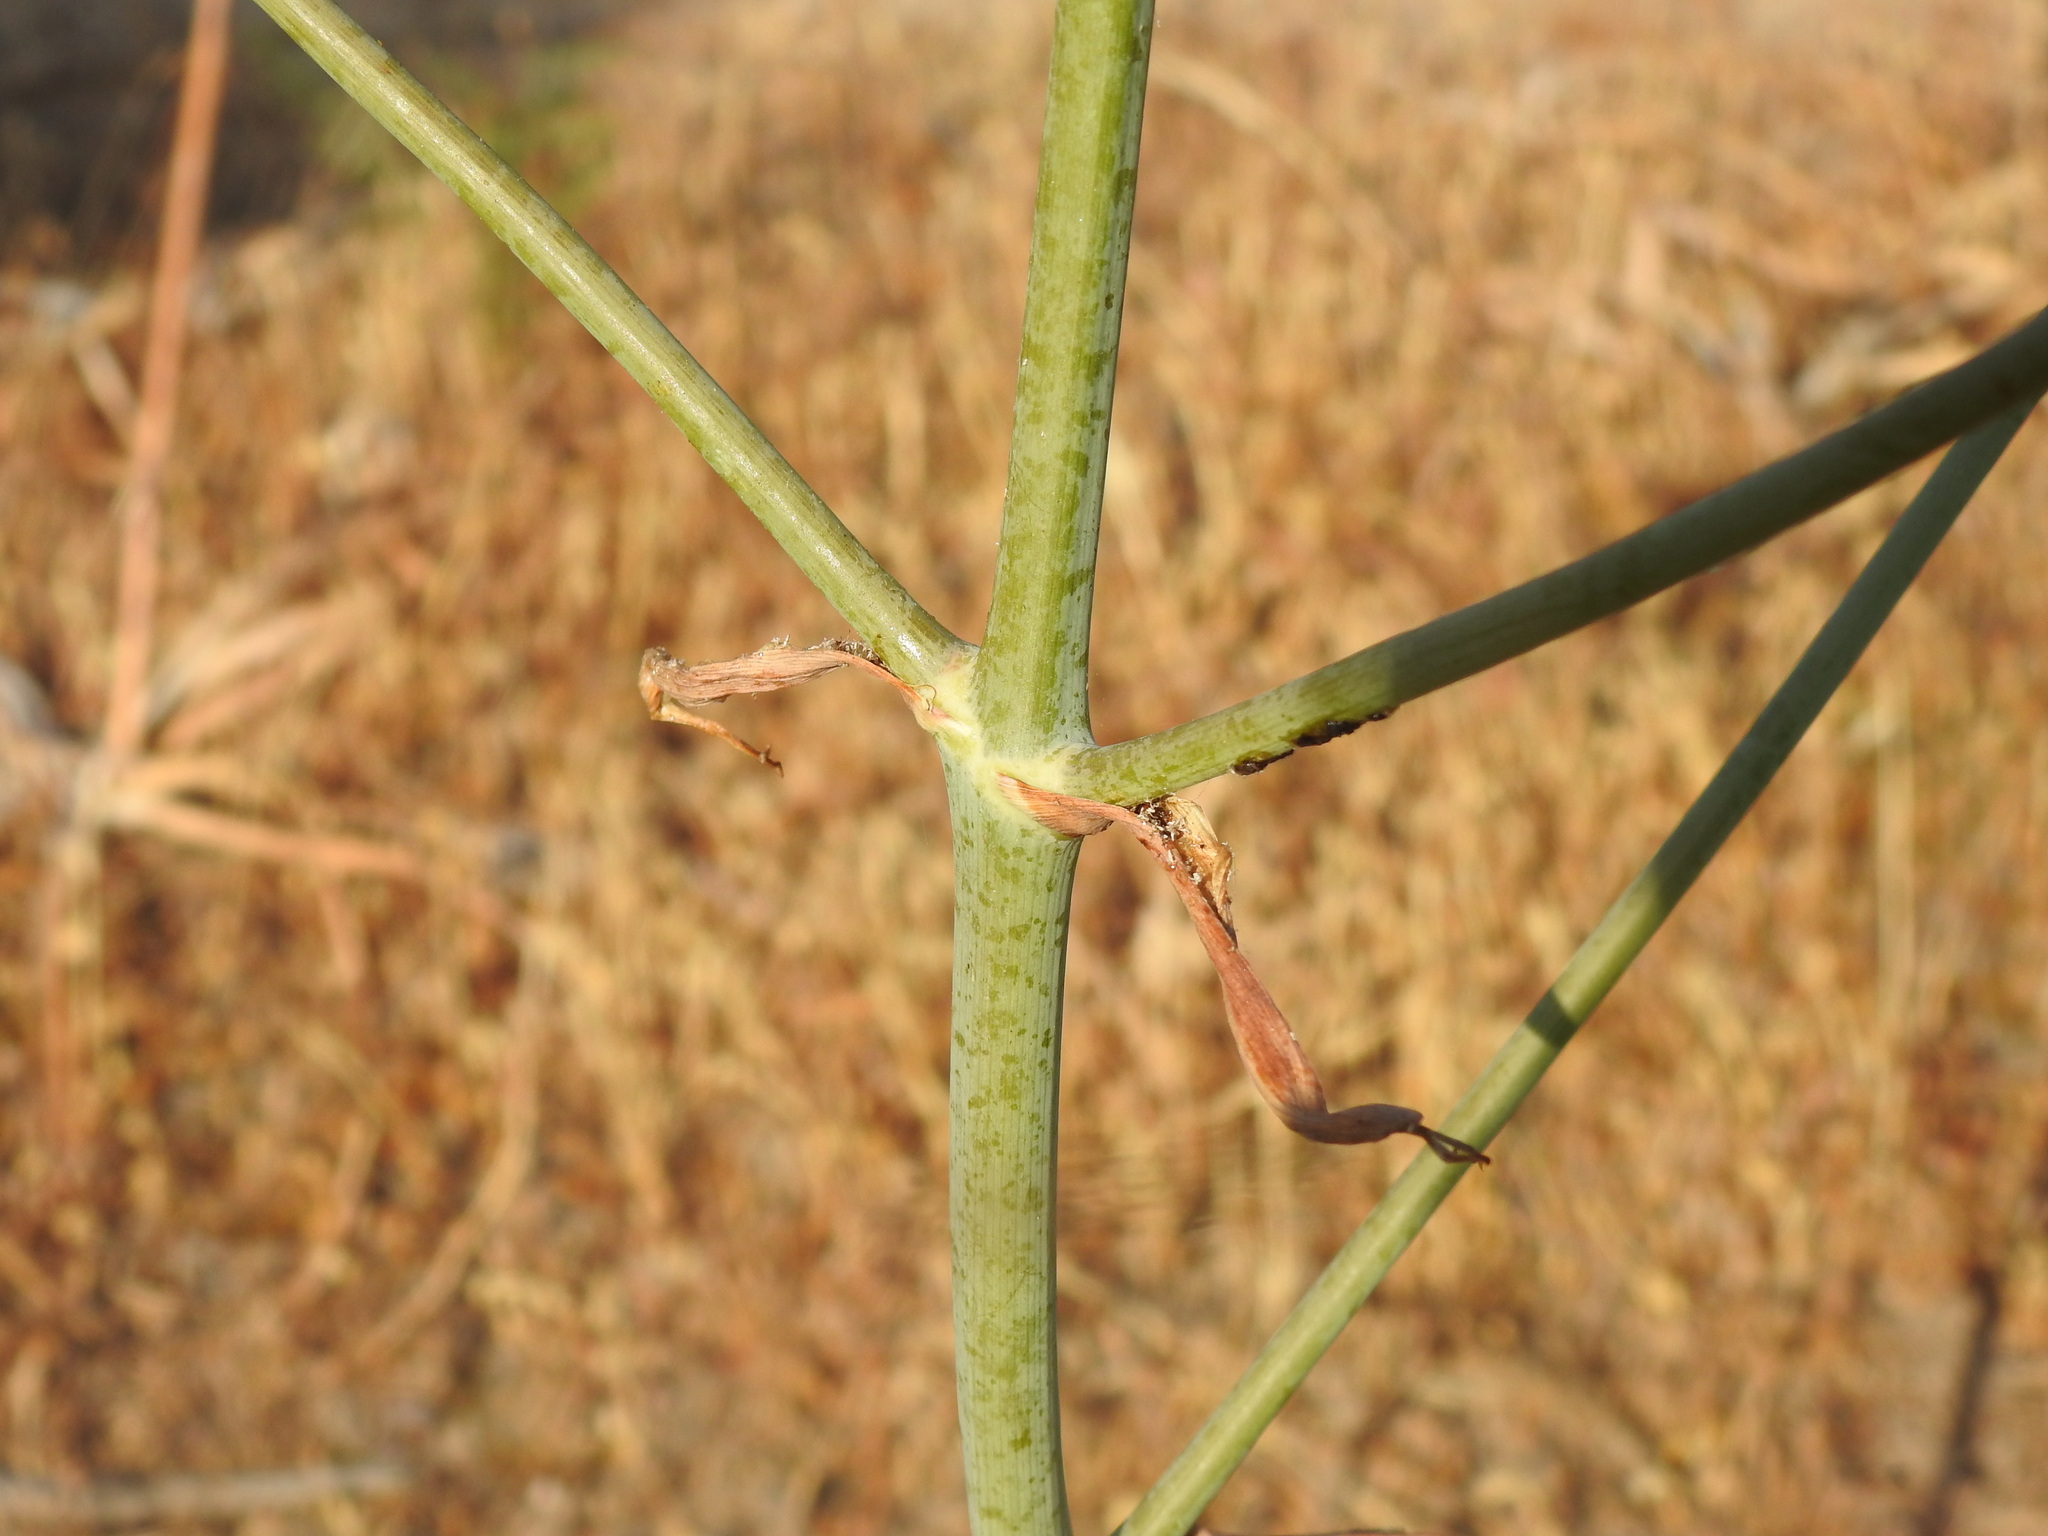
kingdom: Plantae
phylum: Tracheophyta
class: Magnoliopsida
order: Apiales
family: Apiaceae
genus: Thapsia
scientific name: Thapsia gummifera
